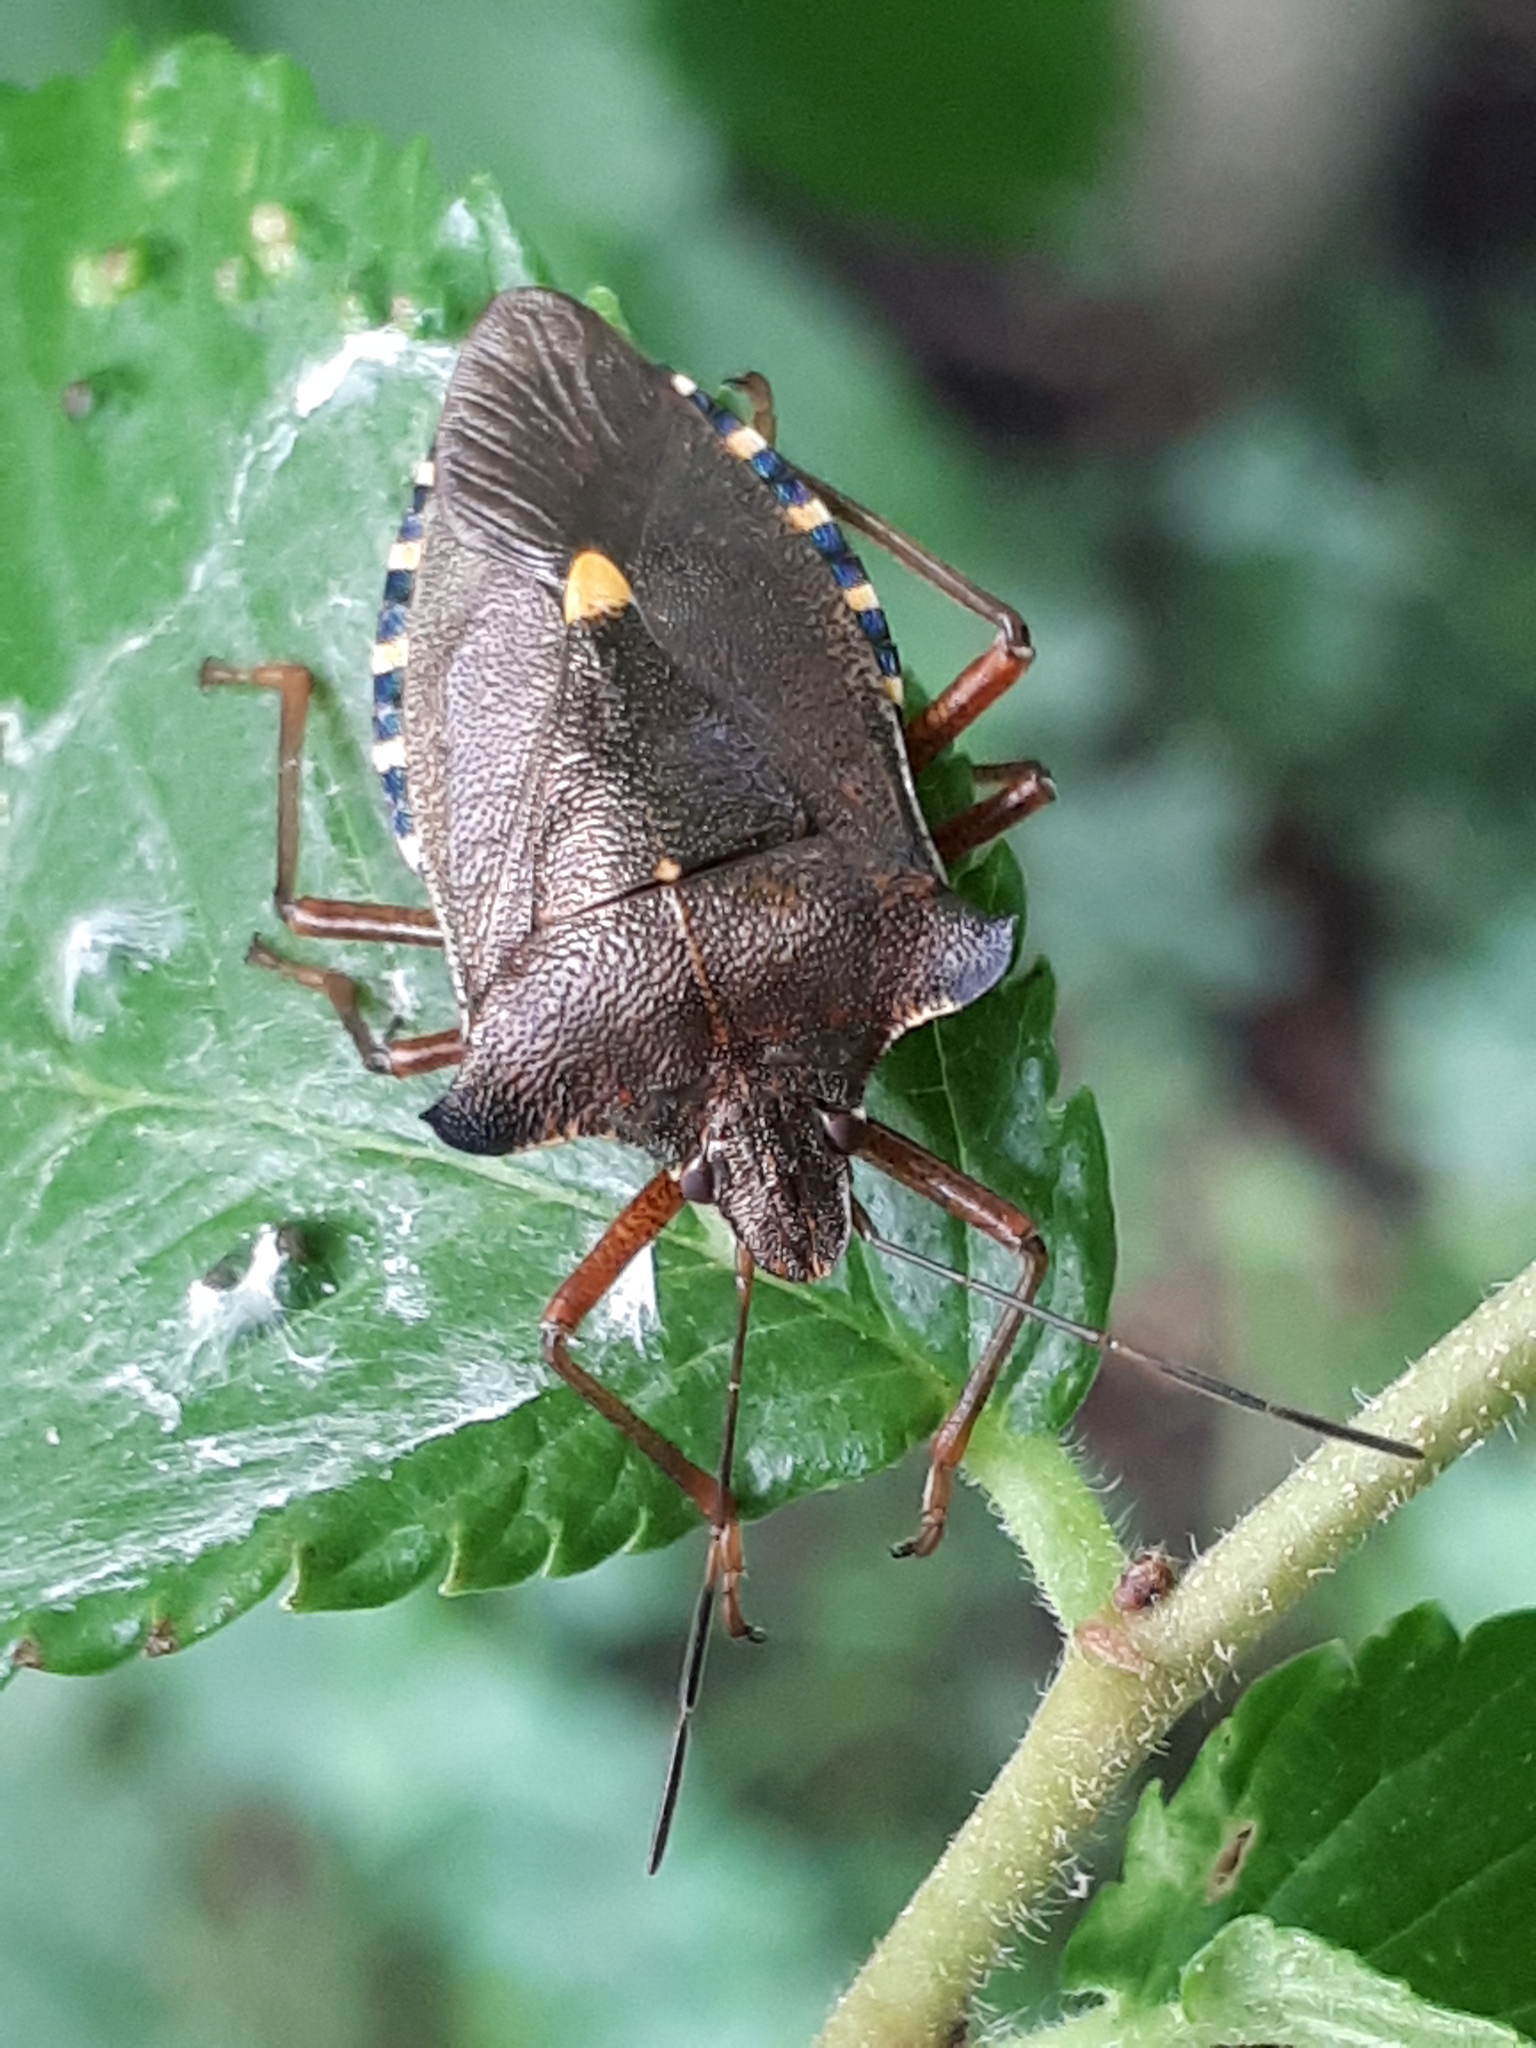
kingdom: Animalia
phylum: Arthropoda
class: Insecta
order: Hemiptera
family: Pentatomidae
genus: Pentatoma
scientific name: Pentatoma rufipes
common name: Forest bug
